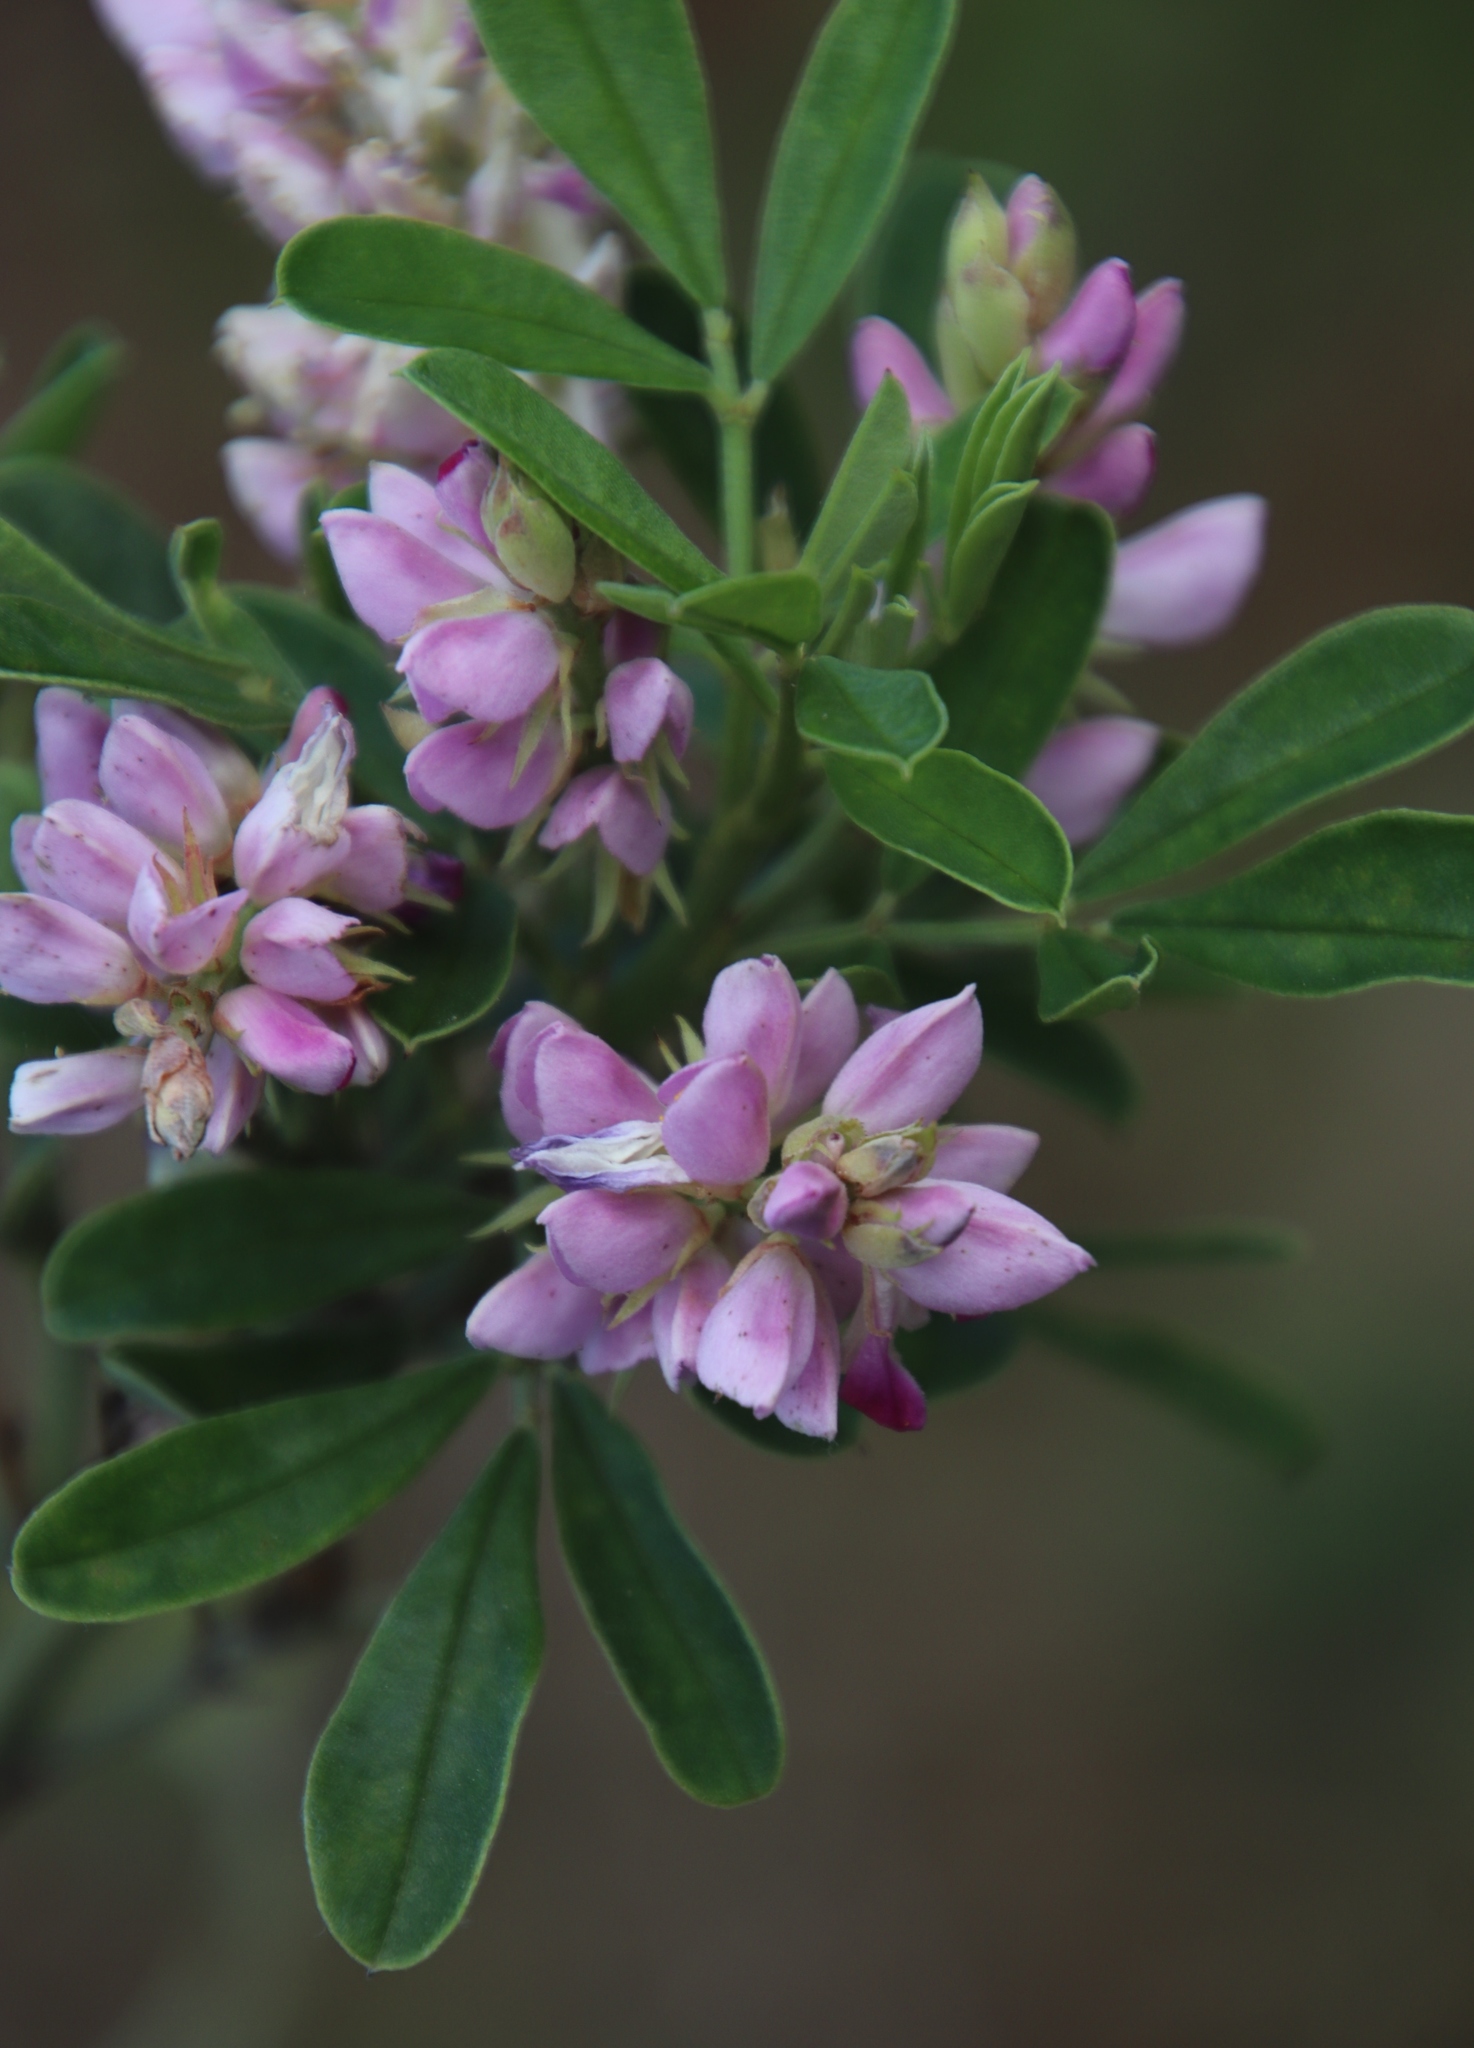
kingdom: Plantae
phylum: Tracheophyta
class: Magnoliopsida
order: Fabales
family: Fabaceae
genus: Indigofera
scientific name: Indigofera cytisoides
